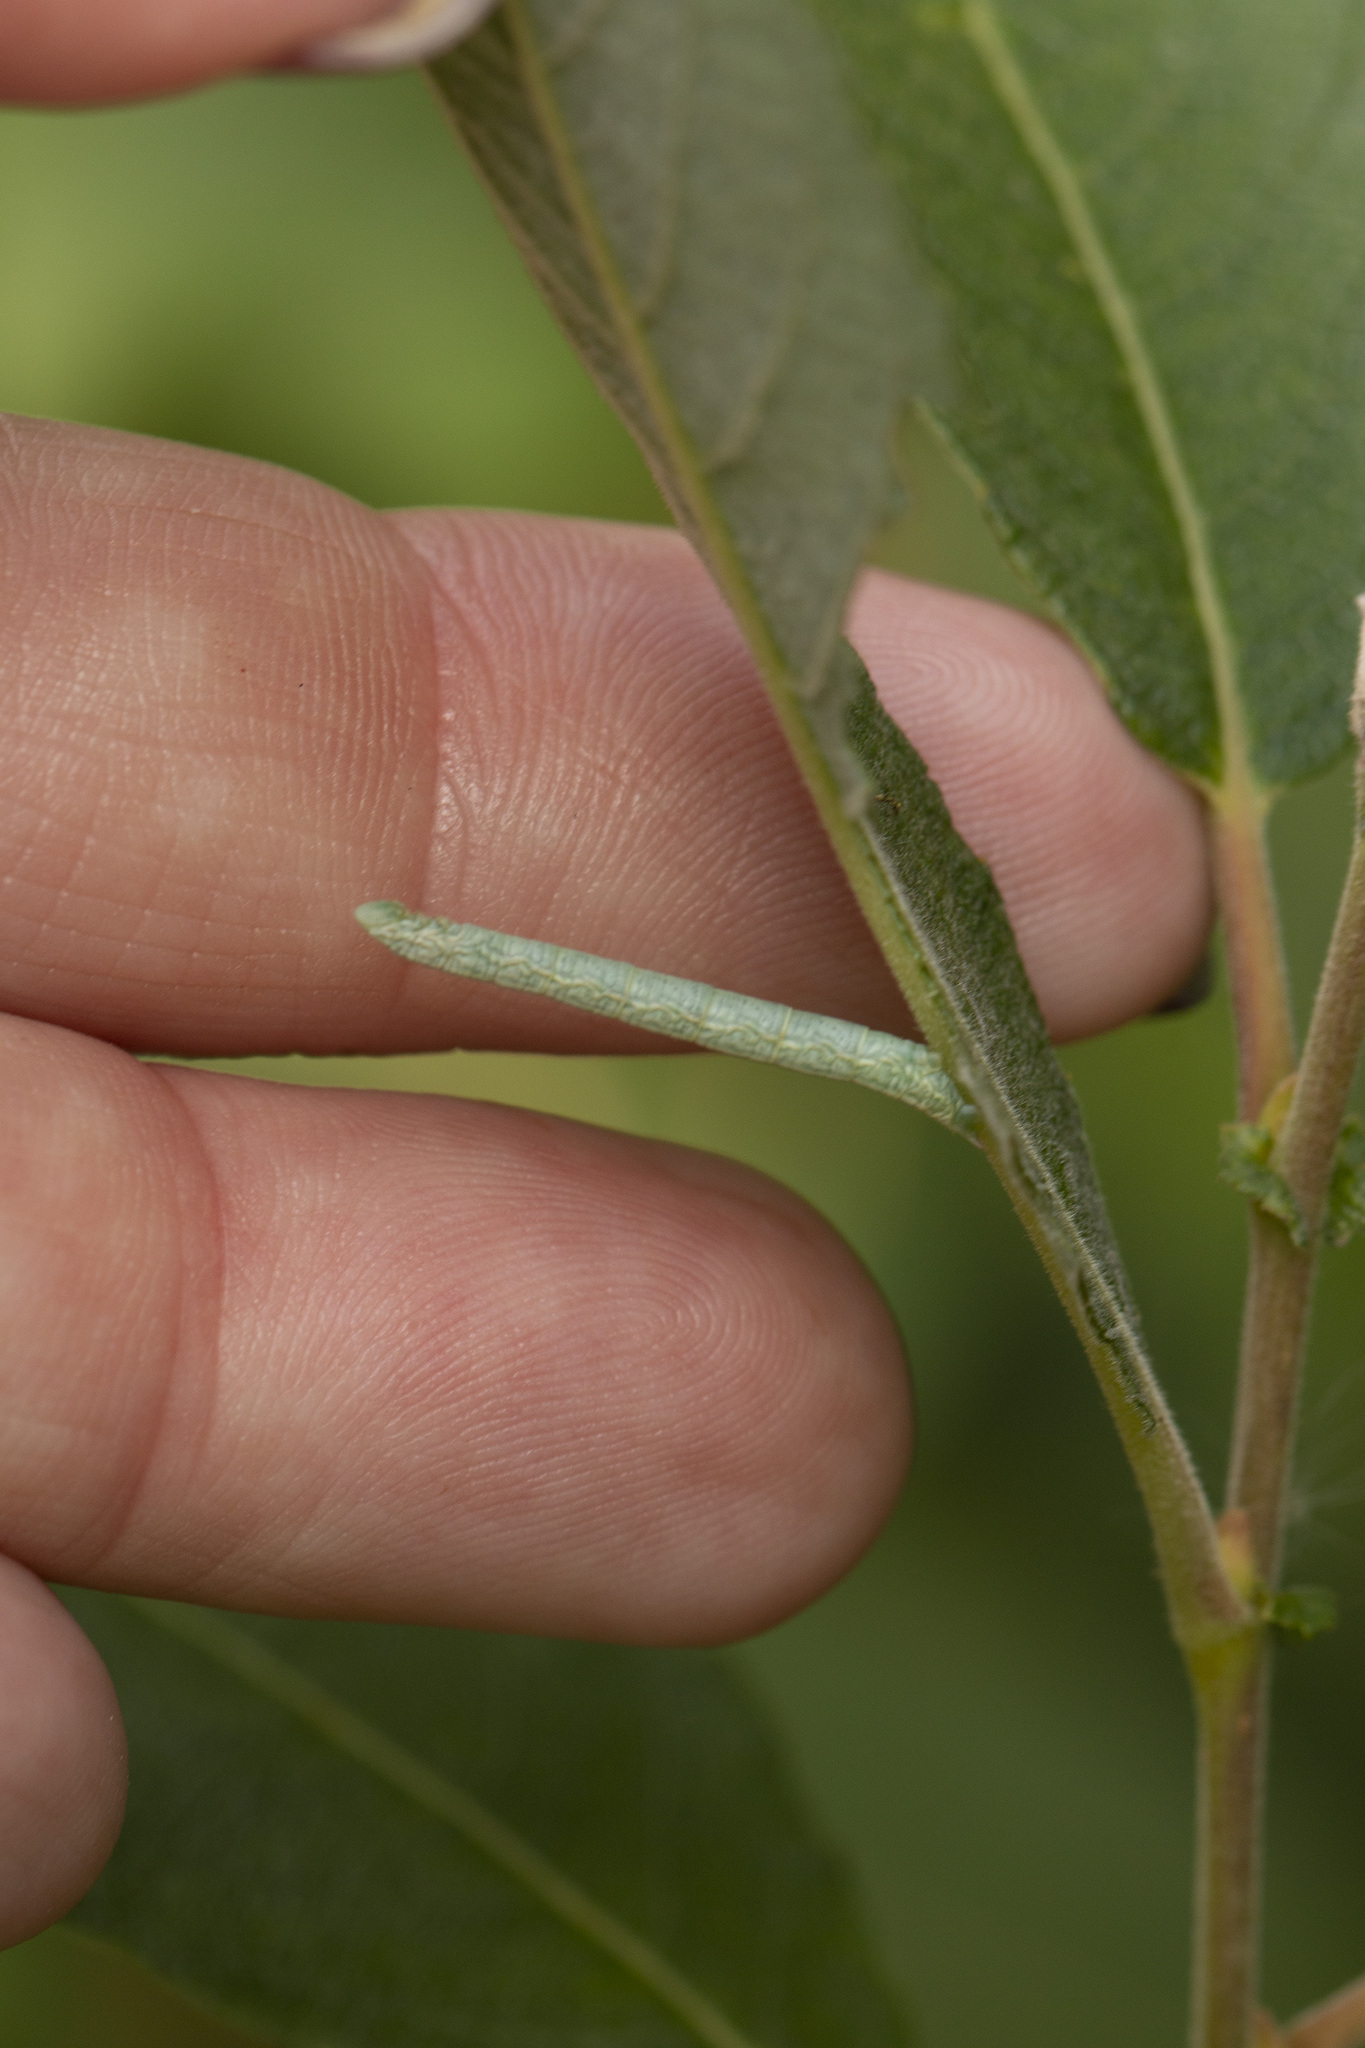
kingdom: Animalia
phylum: Arthropoda
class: Insecta
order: Lepidoptera
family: Geometridae
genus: Pterapherapteryx
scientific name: Pterapherapteryx sexalata
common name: Small seraphim
